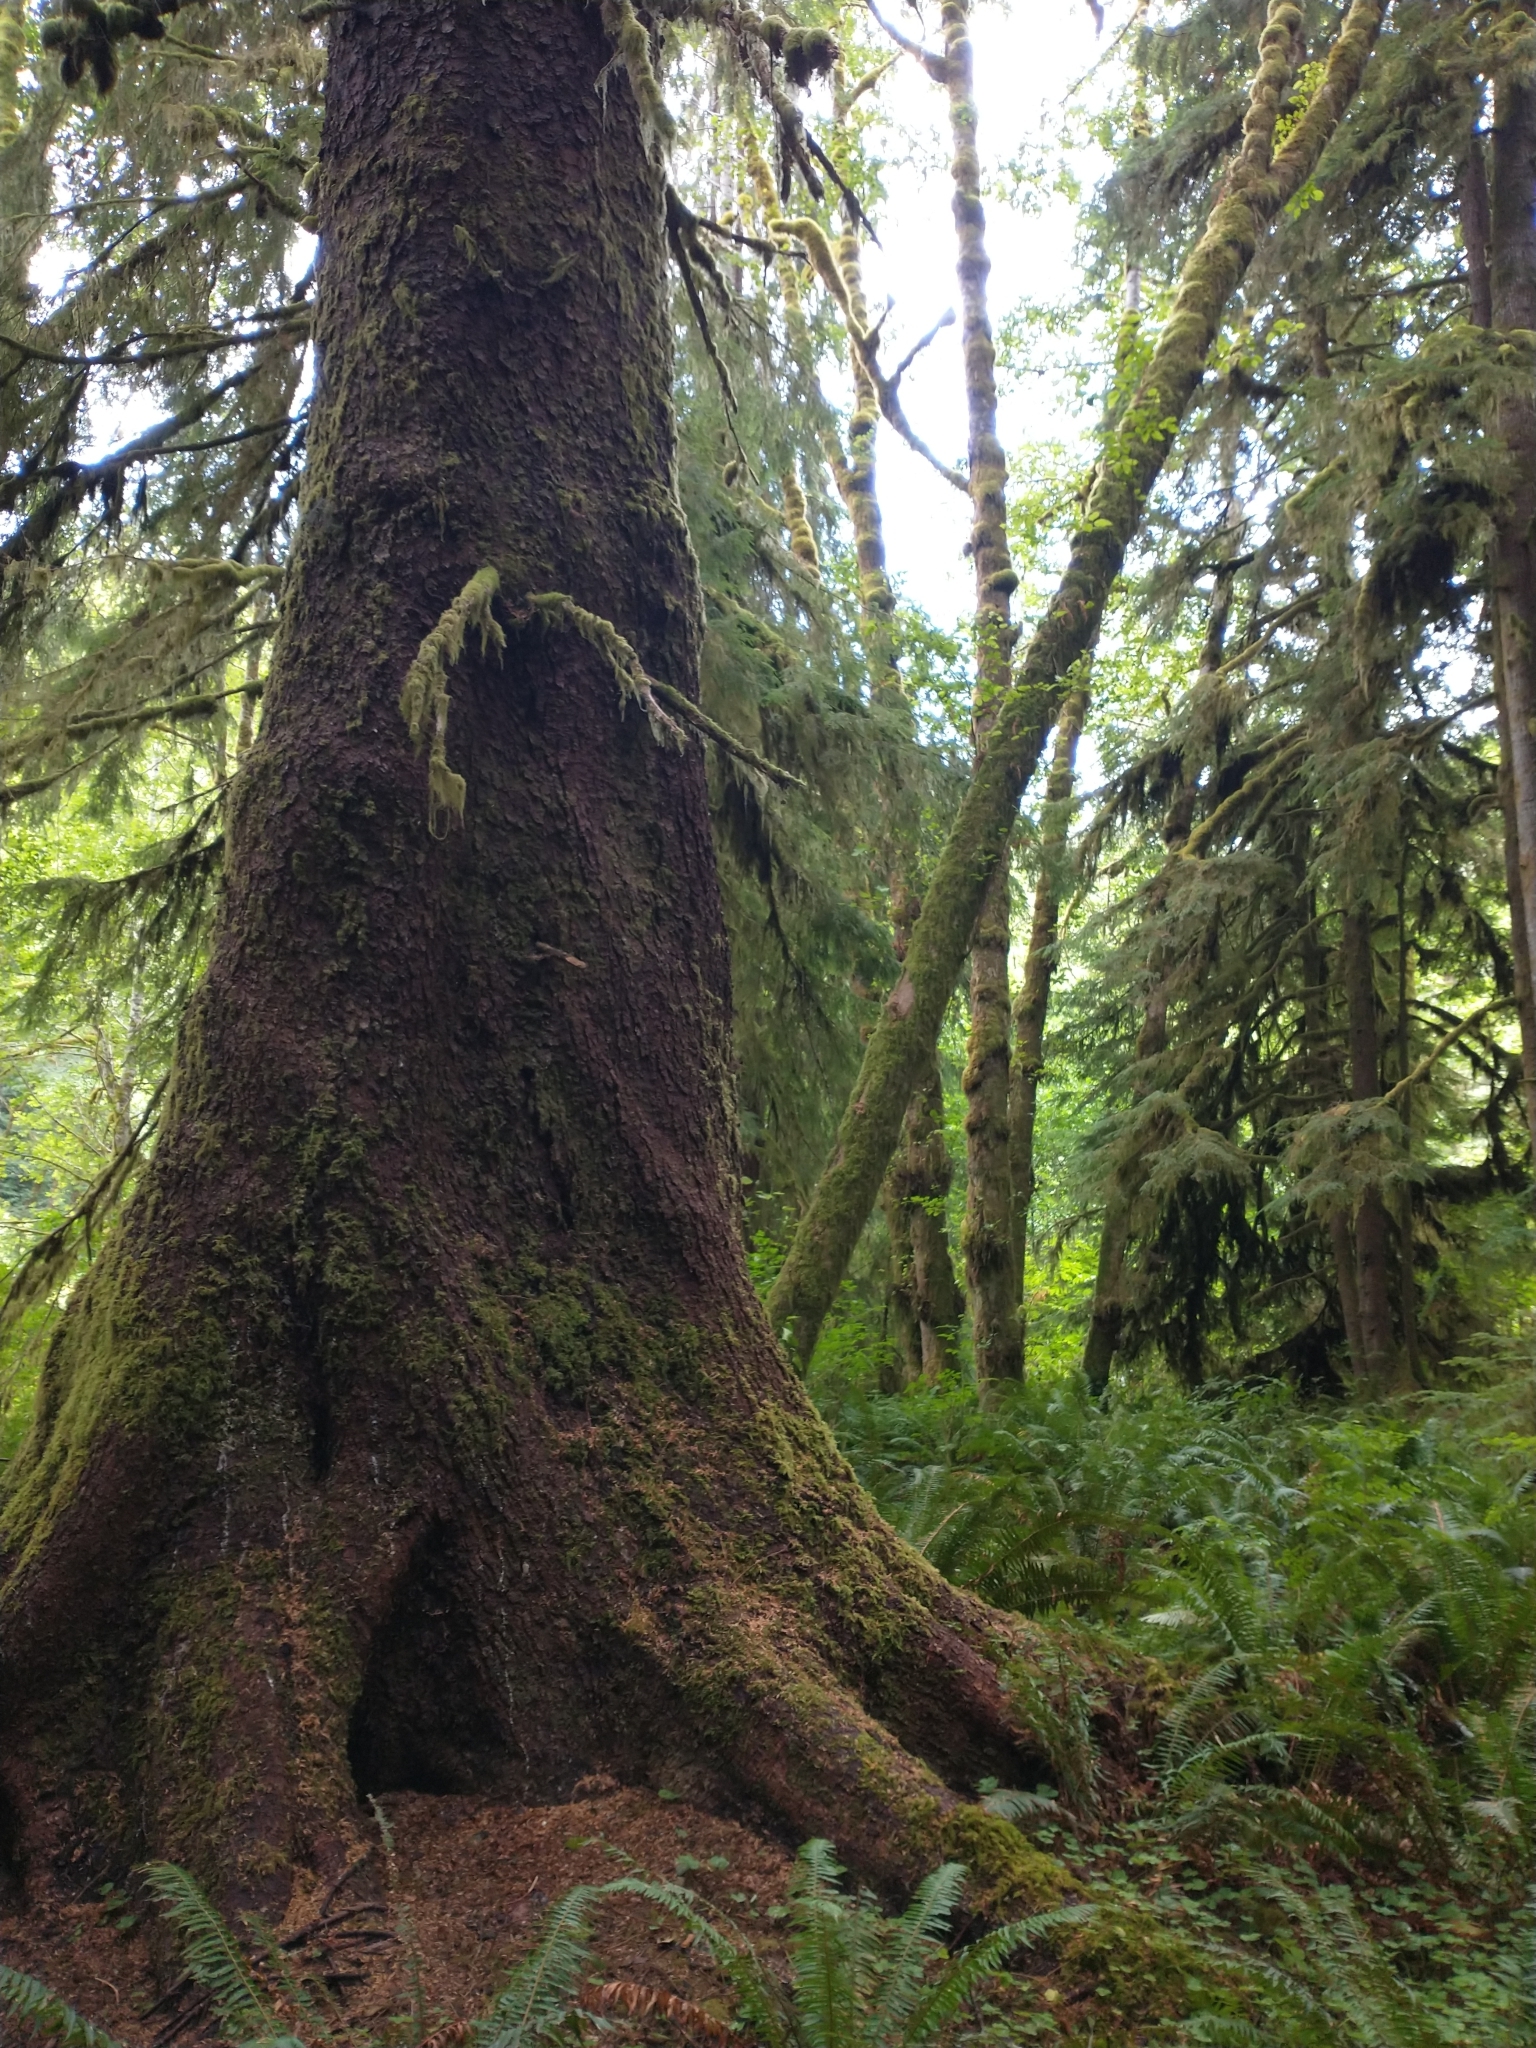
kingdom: Plantae
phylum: Tracheophyta
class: Pinopsida
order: Pinales
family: Pinaceae
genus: Picea
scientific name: Picea sitchensis
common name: Sitka spruce
